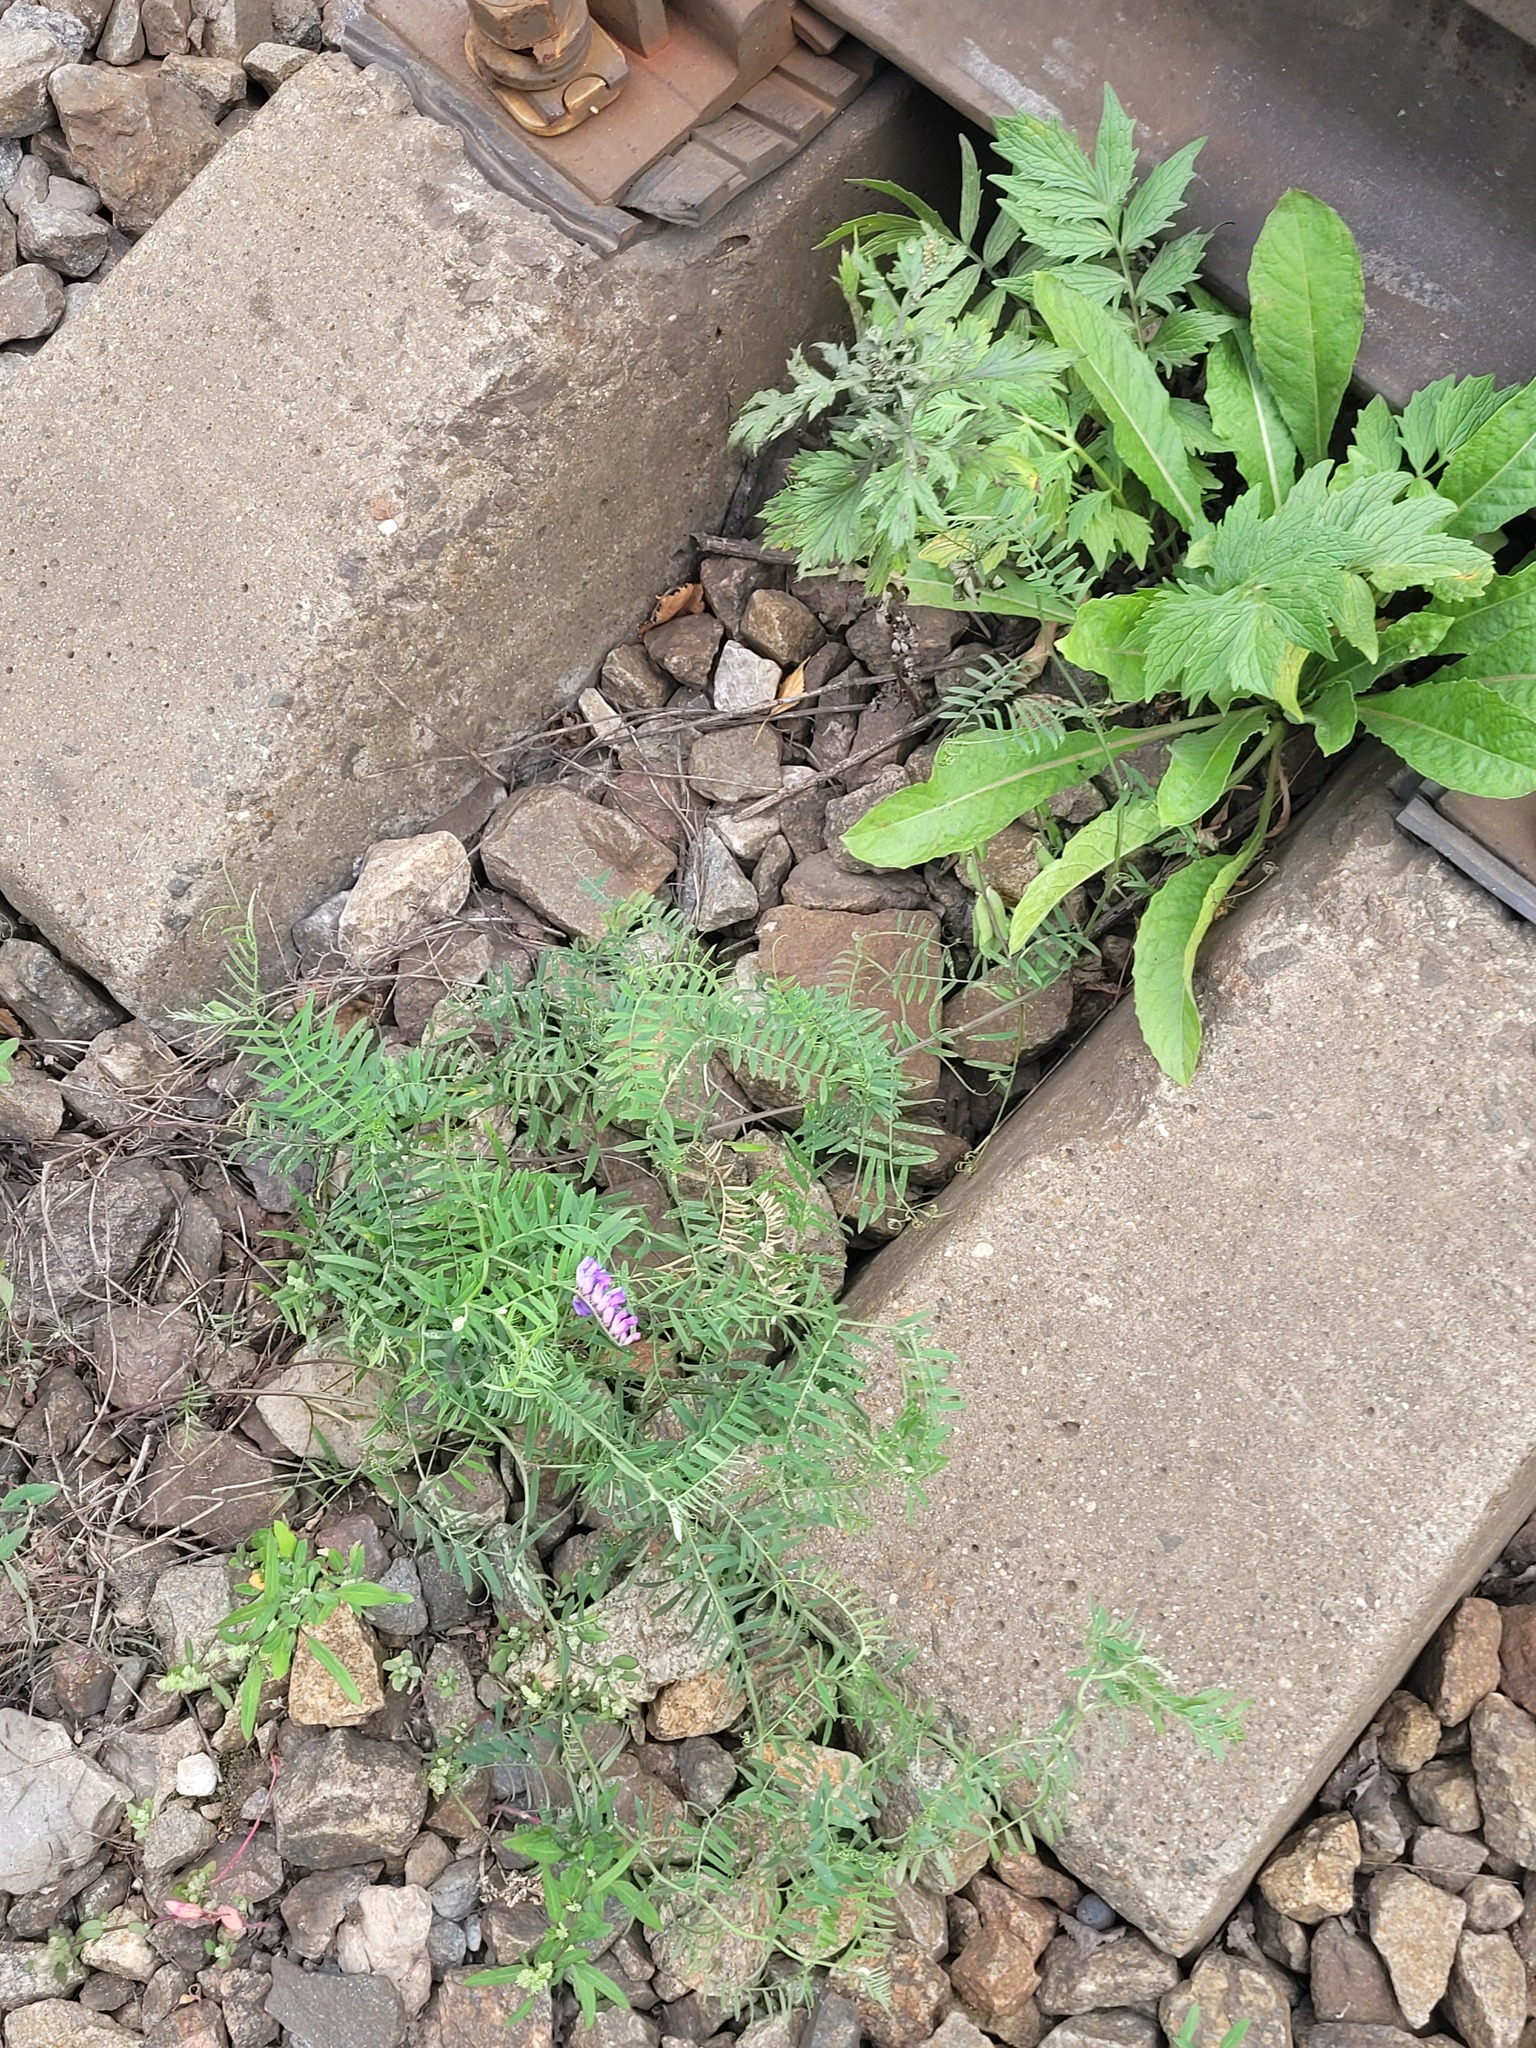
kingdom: Plantae
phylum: Tracheophyta
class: Magnoliopsida
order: Fabales
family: Fabaceae
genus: Vicia
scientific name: Vicia cracca
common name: Bird vetch
